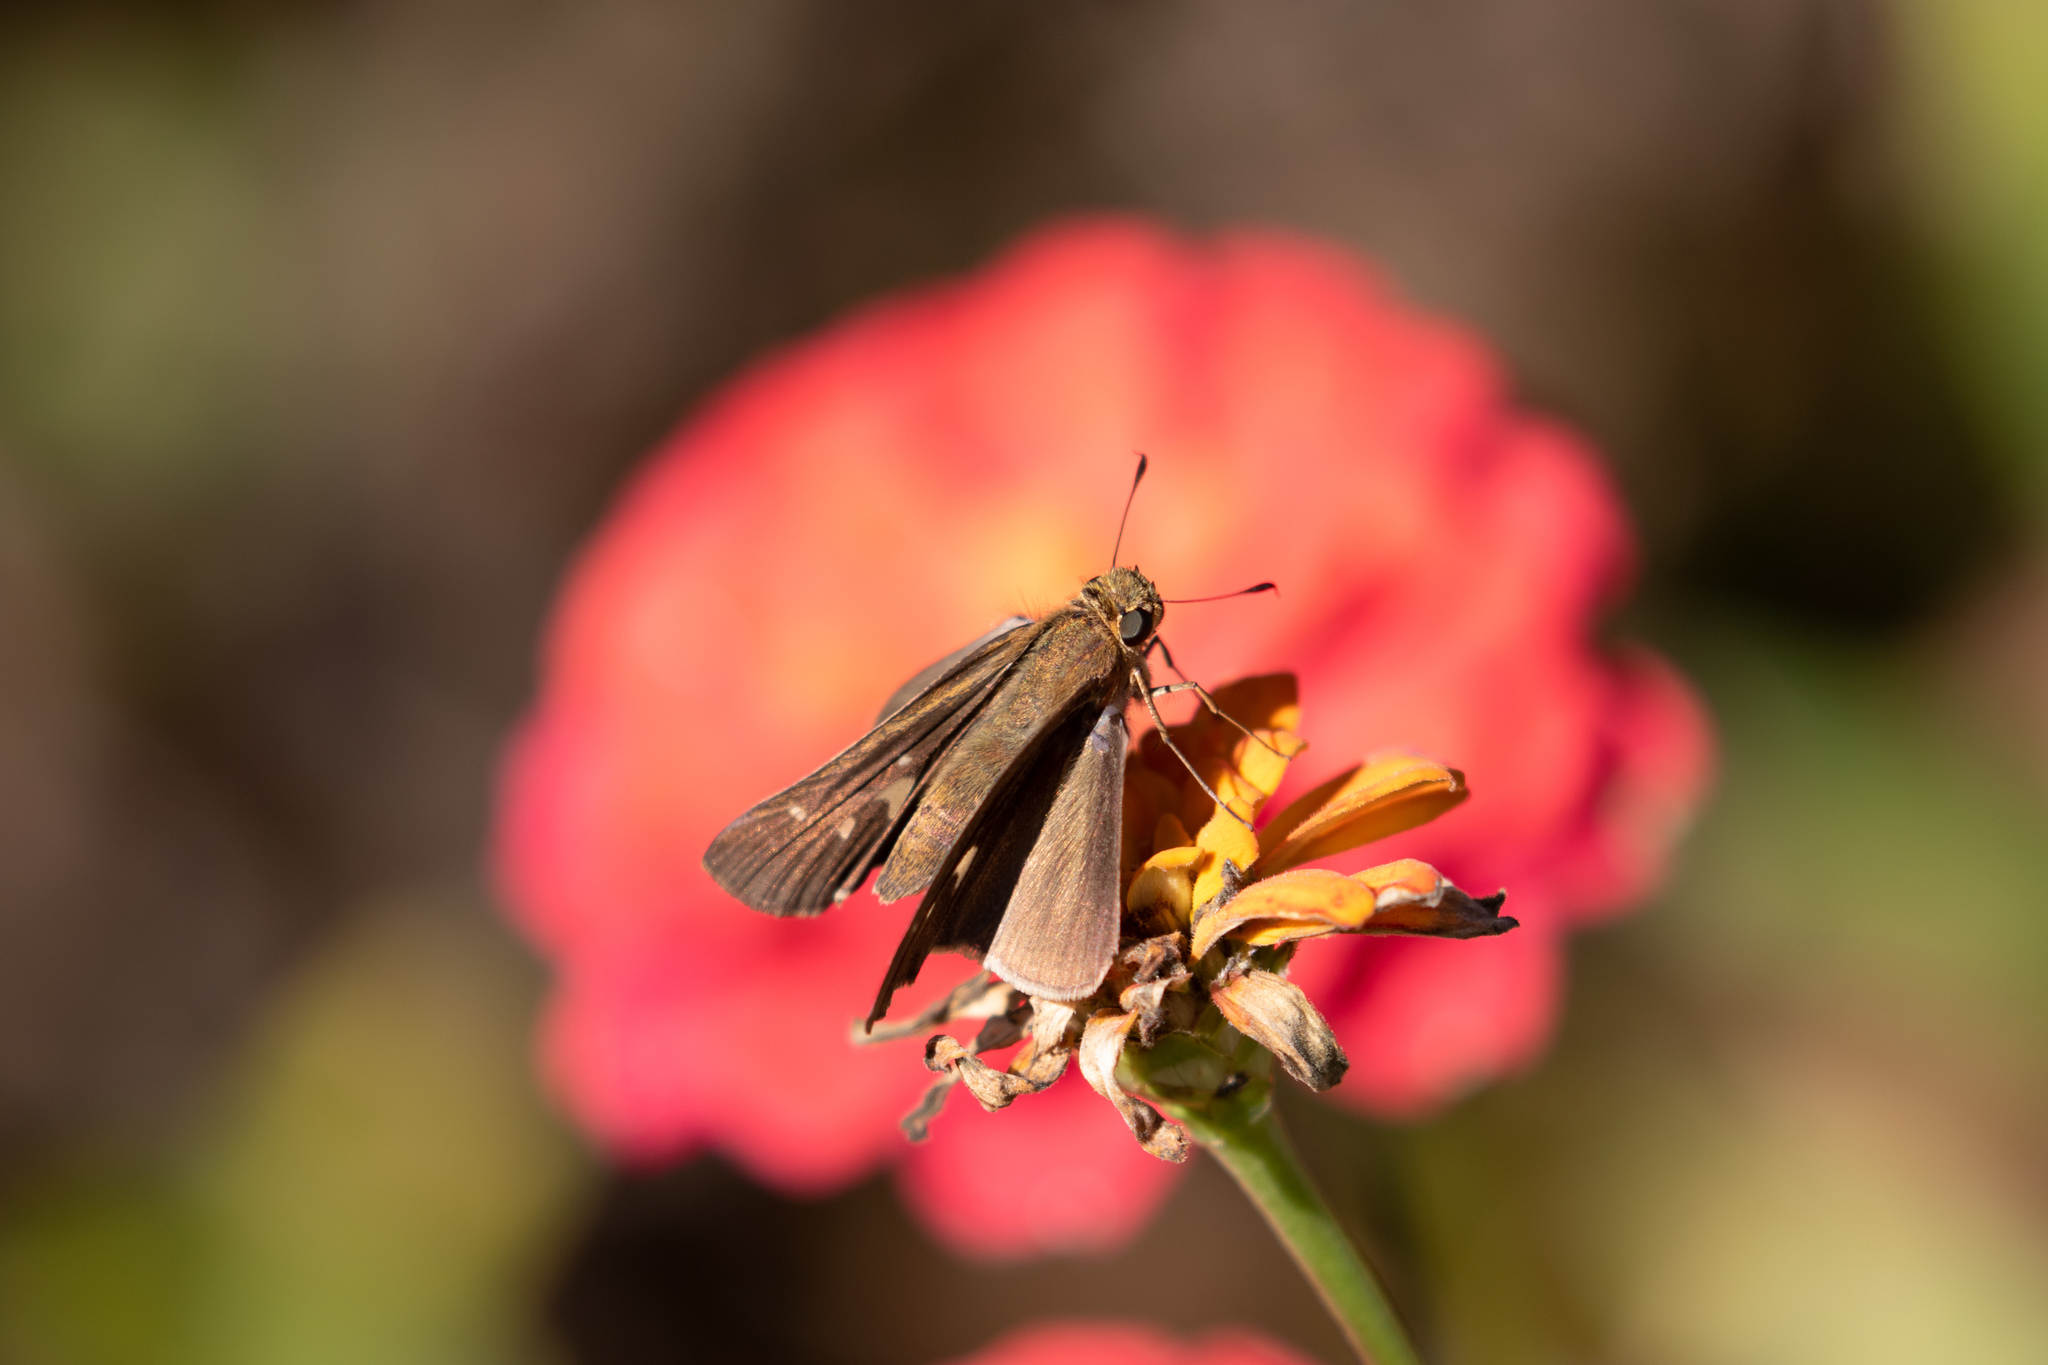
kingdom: Animalia
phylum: Arthropoda
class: Insecta
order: Lepidoptera
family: Hesperiidae
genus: Panoquina
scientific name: Panoquina ocola
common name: Ocola skipper
